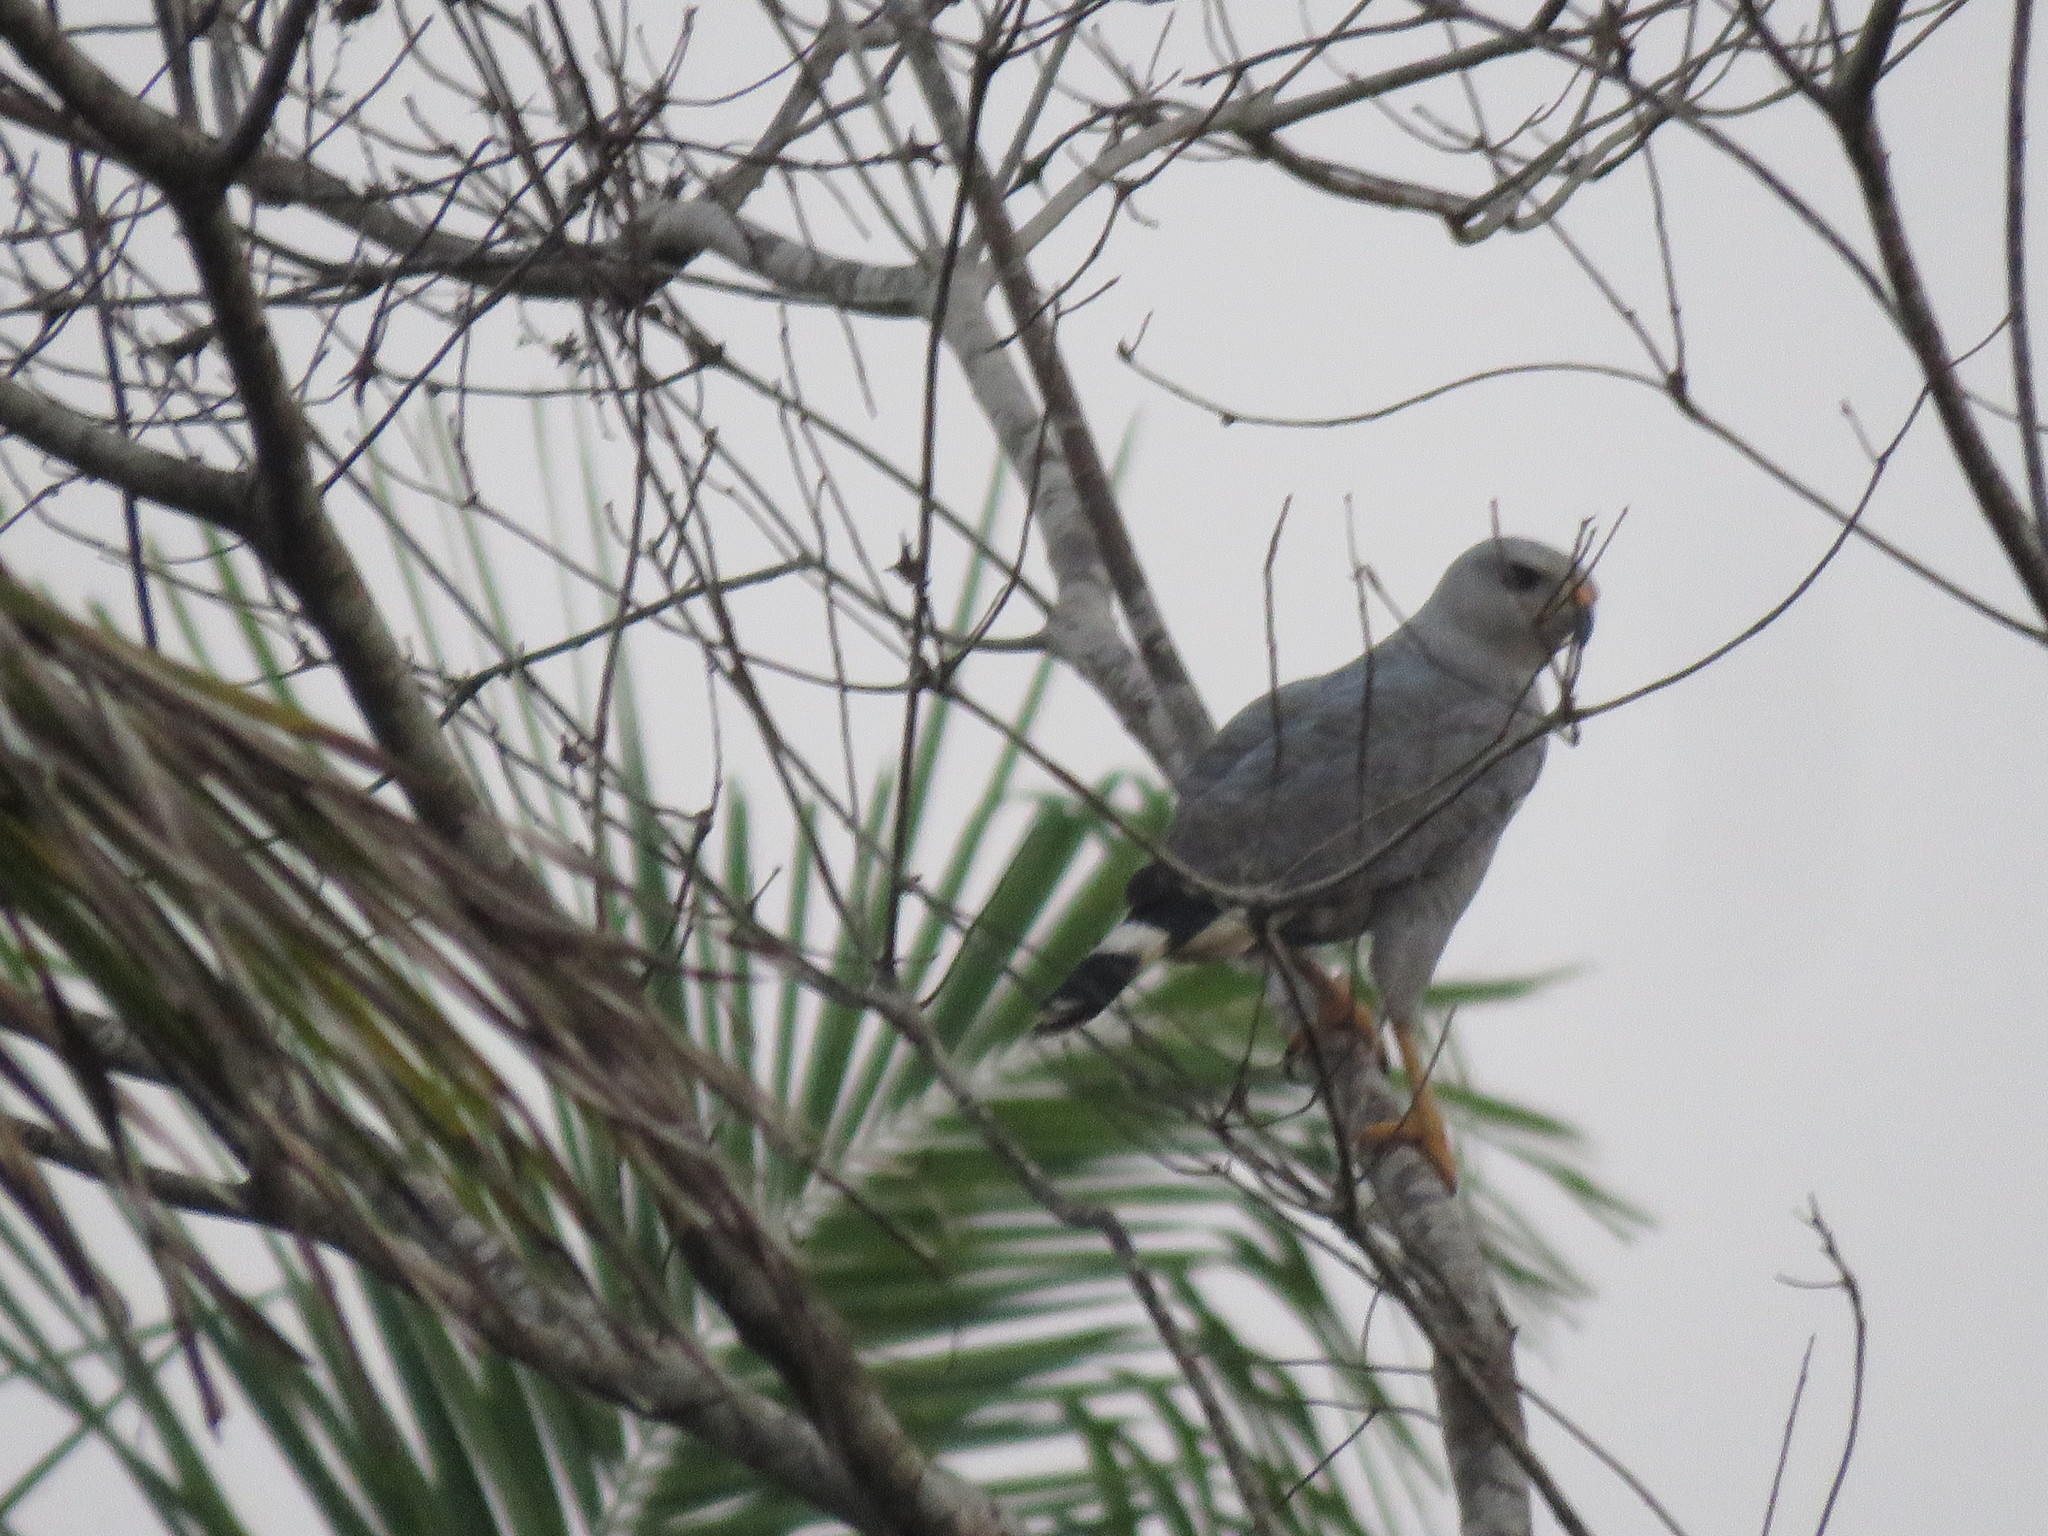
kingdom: Animalia
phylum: Chordata
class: Aves
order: Accipitriformes
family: Accipitridae
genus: Buteo
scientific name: Buteo nitidus
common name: Grey-lined hawk
